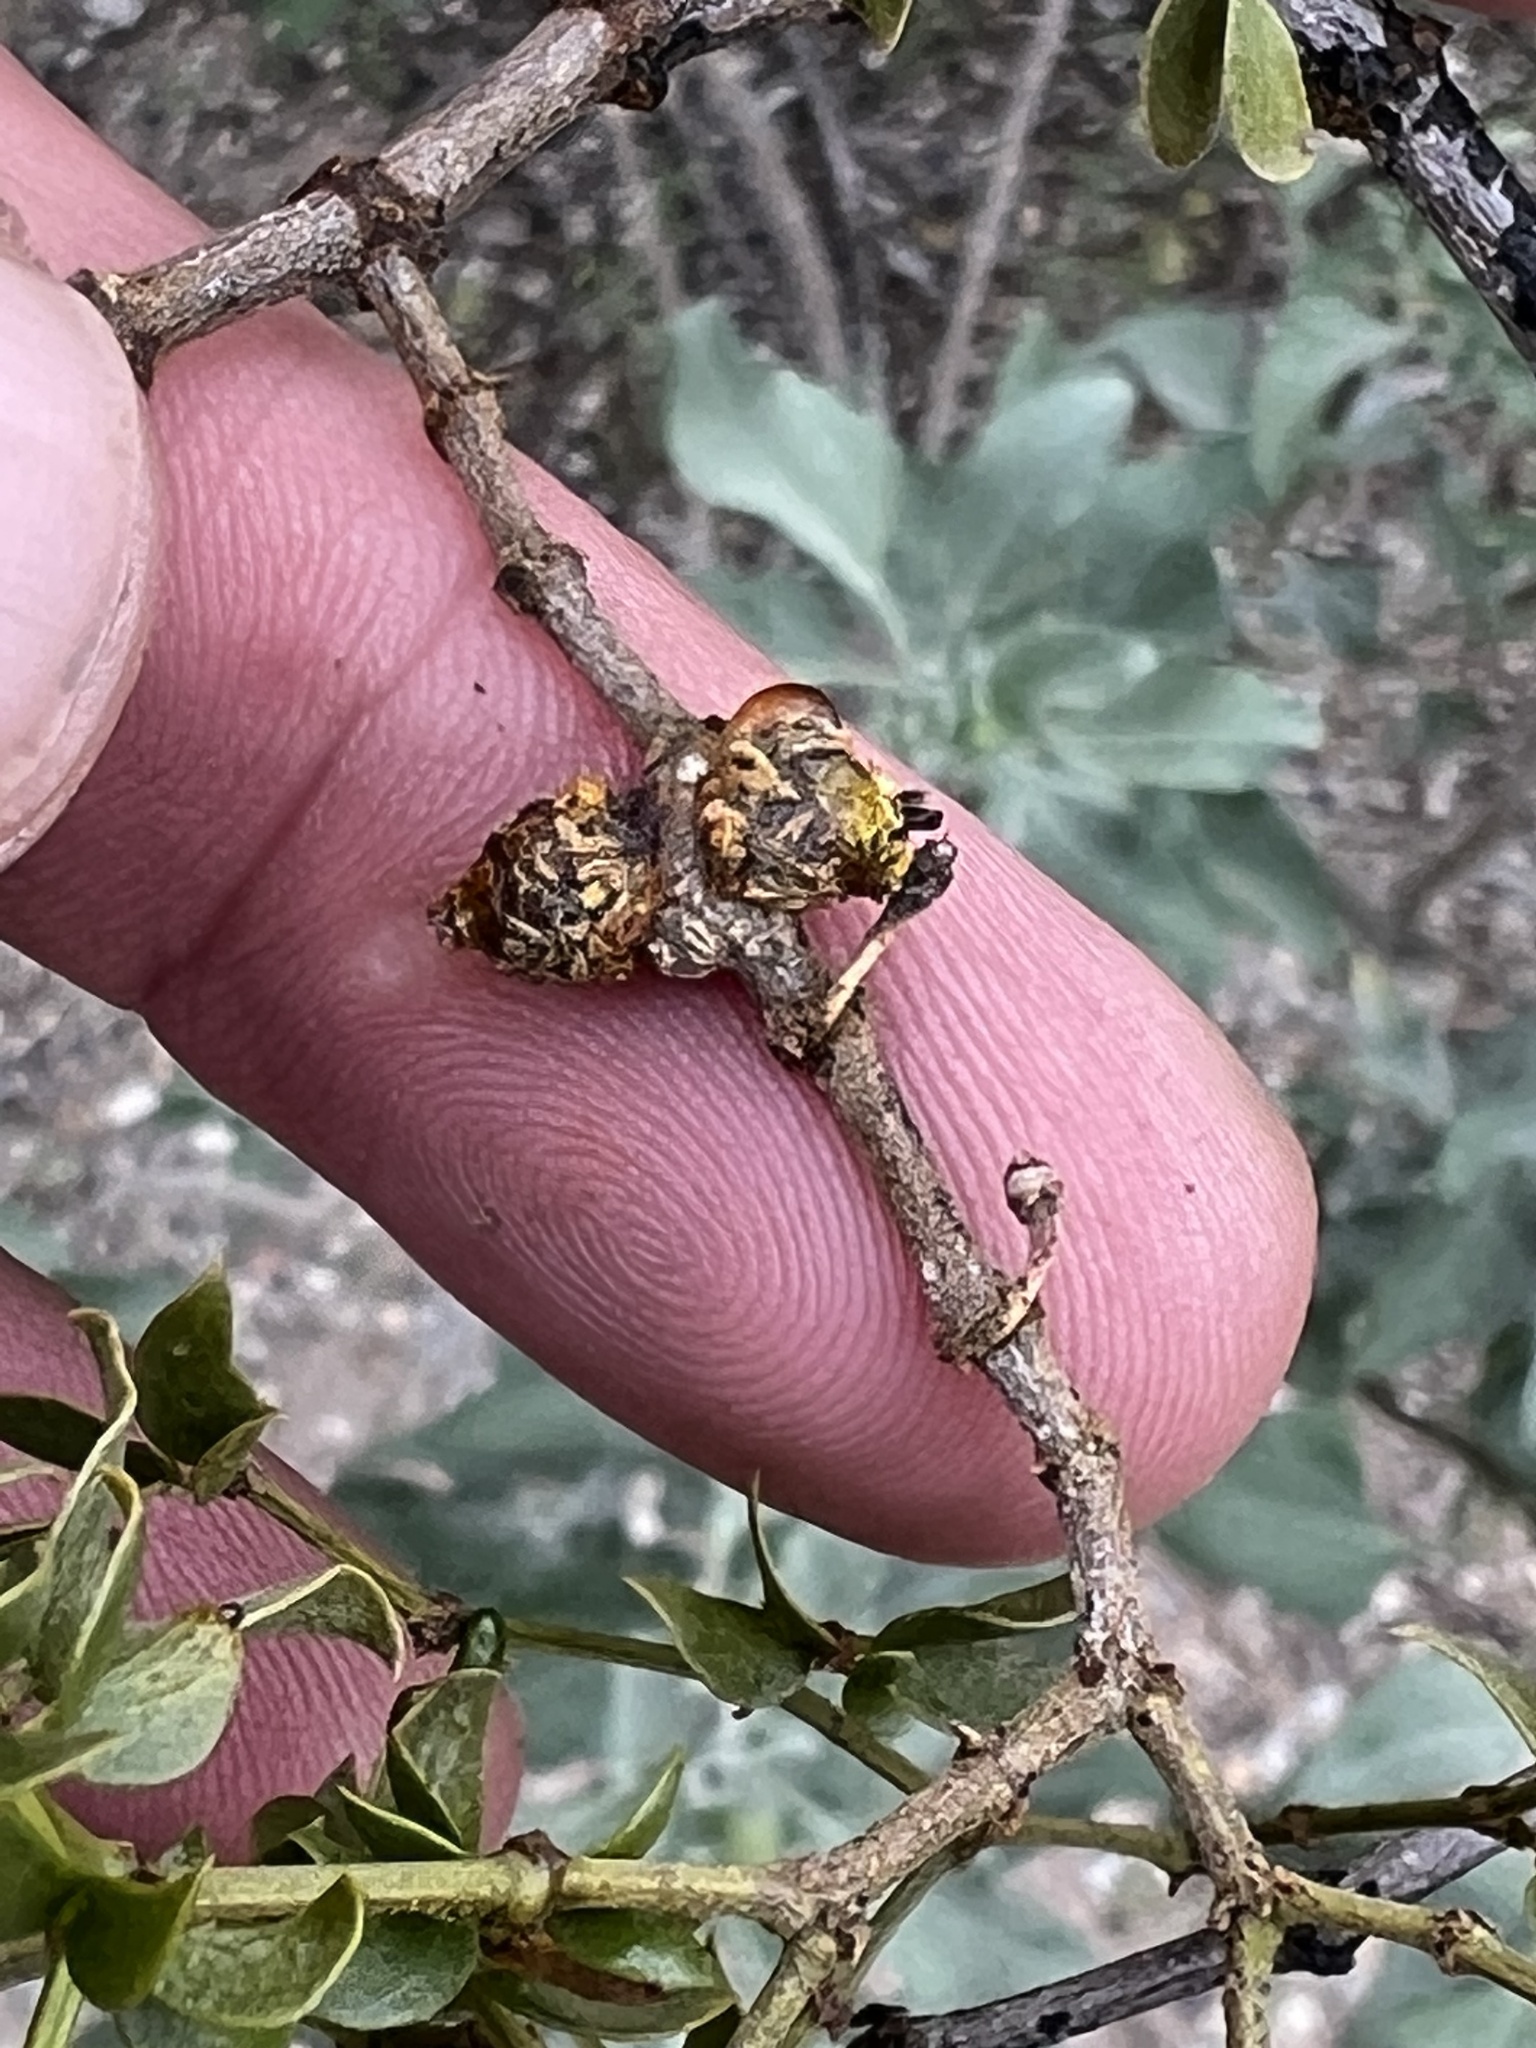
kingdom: Animalia
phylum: Arthropoda
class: Insecta
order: Diptera
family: Cecidomyiidae
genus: Asphondylia
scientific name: Asphondylia rosetta
